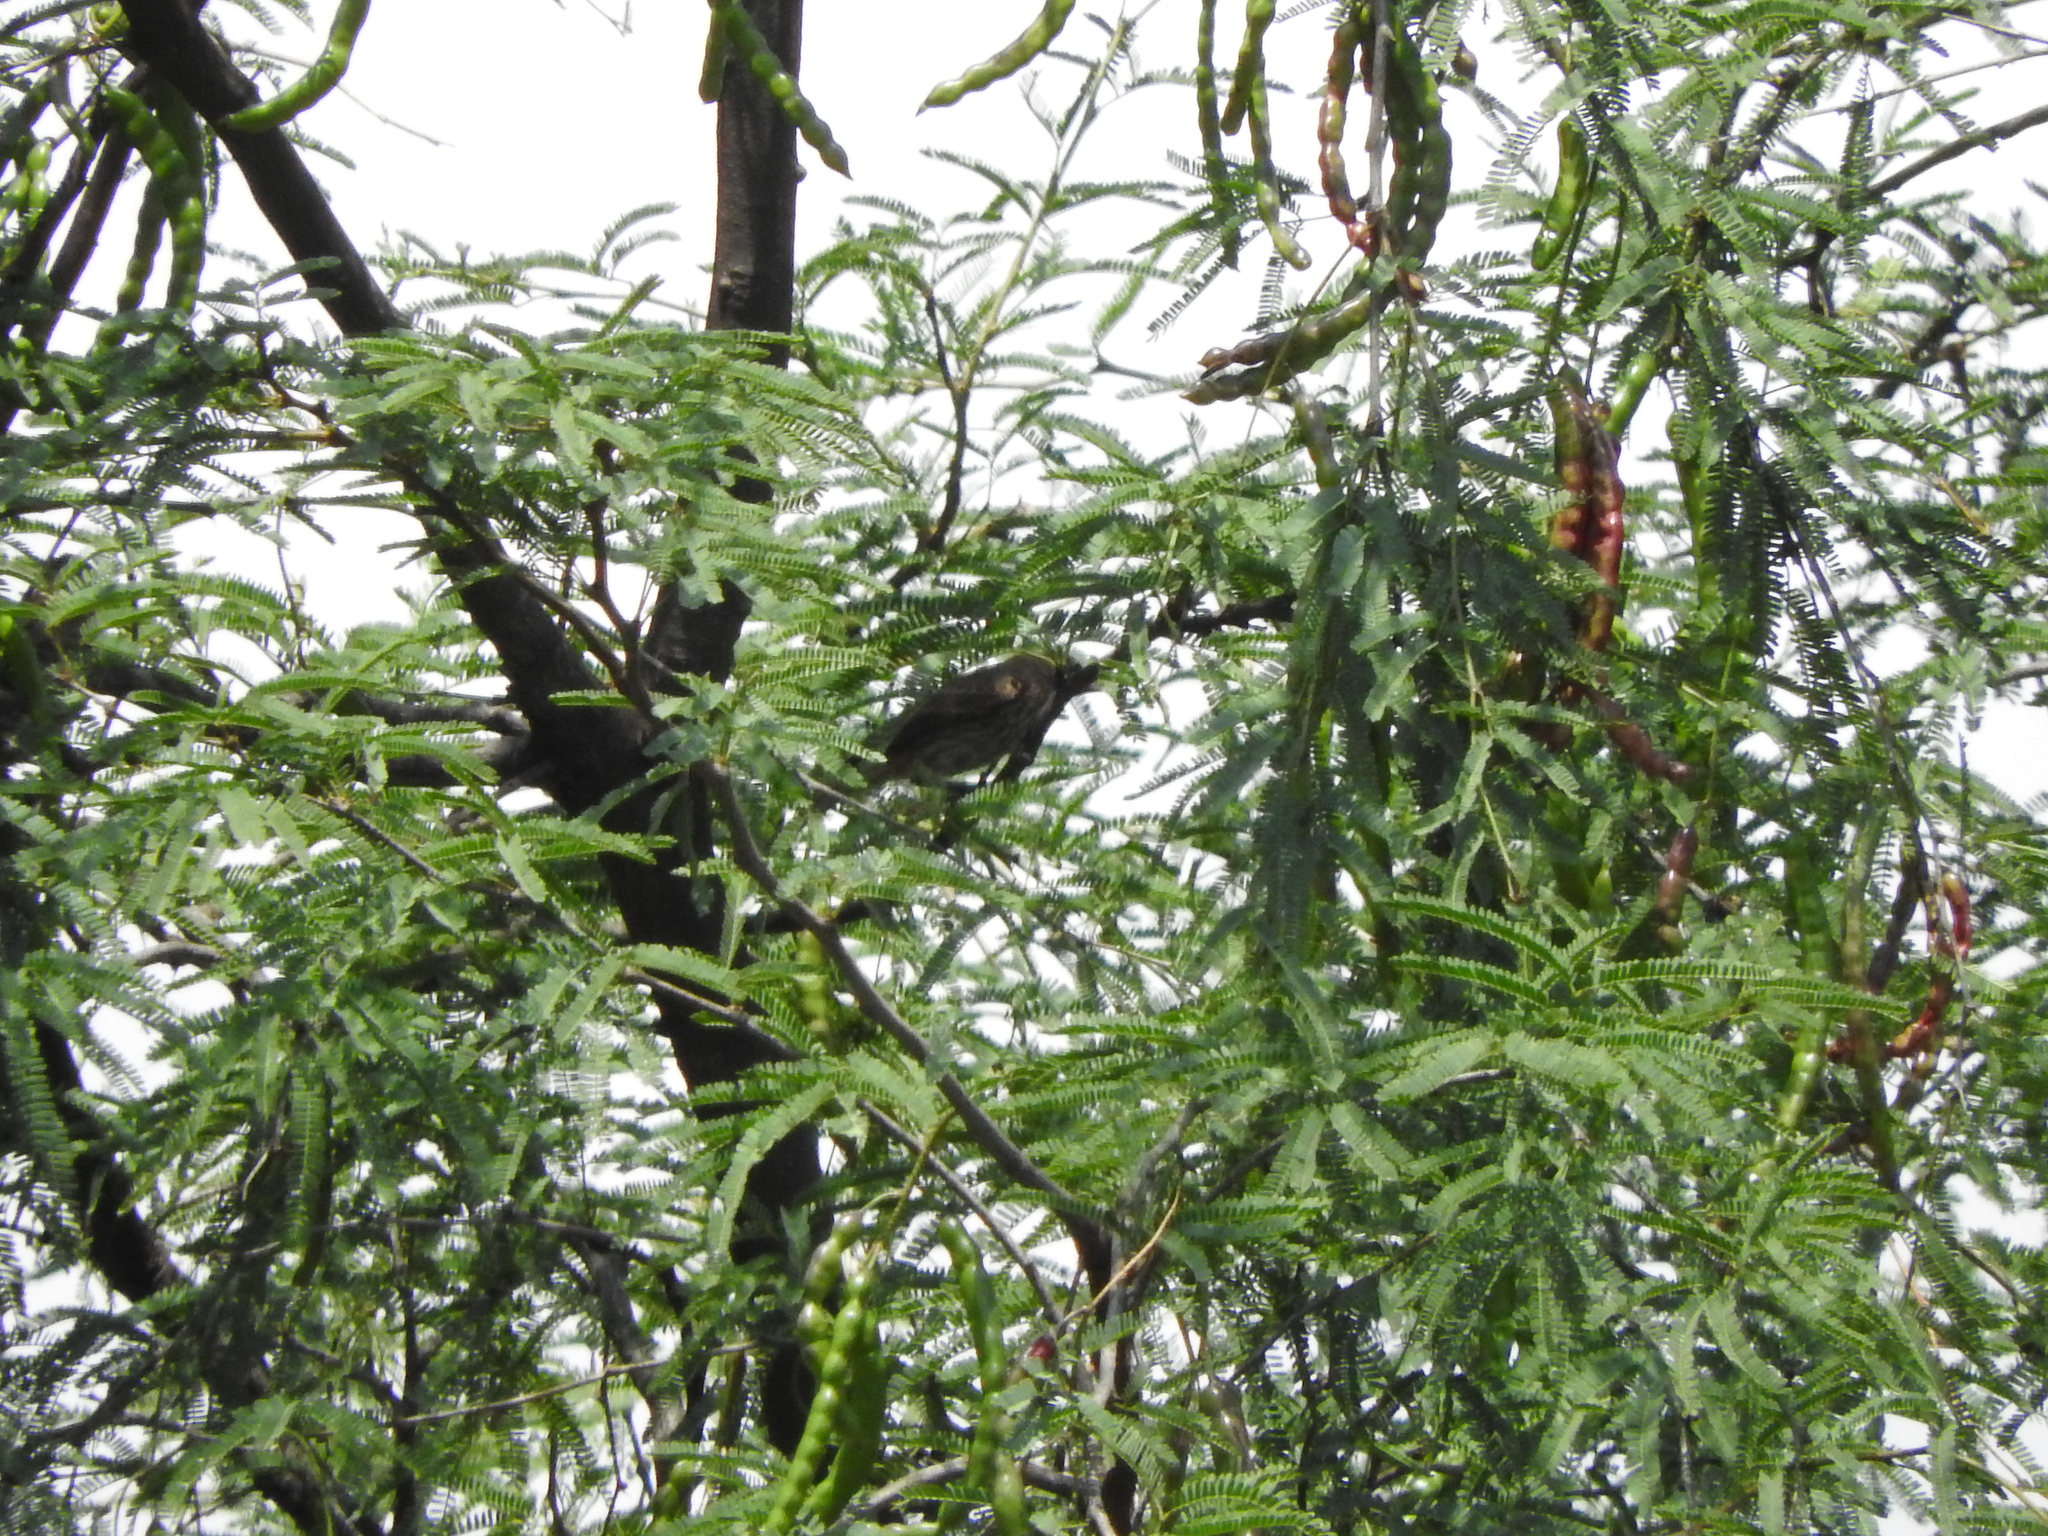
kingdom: Plantae
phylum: Tracheophyta
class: Magnoliopsida
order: Fabales
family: Fabaceae
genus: Prosopis
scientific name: Prosopis laevigata
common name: Smooth mesquite
